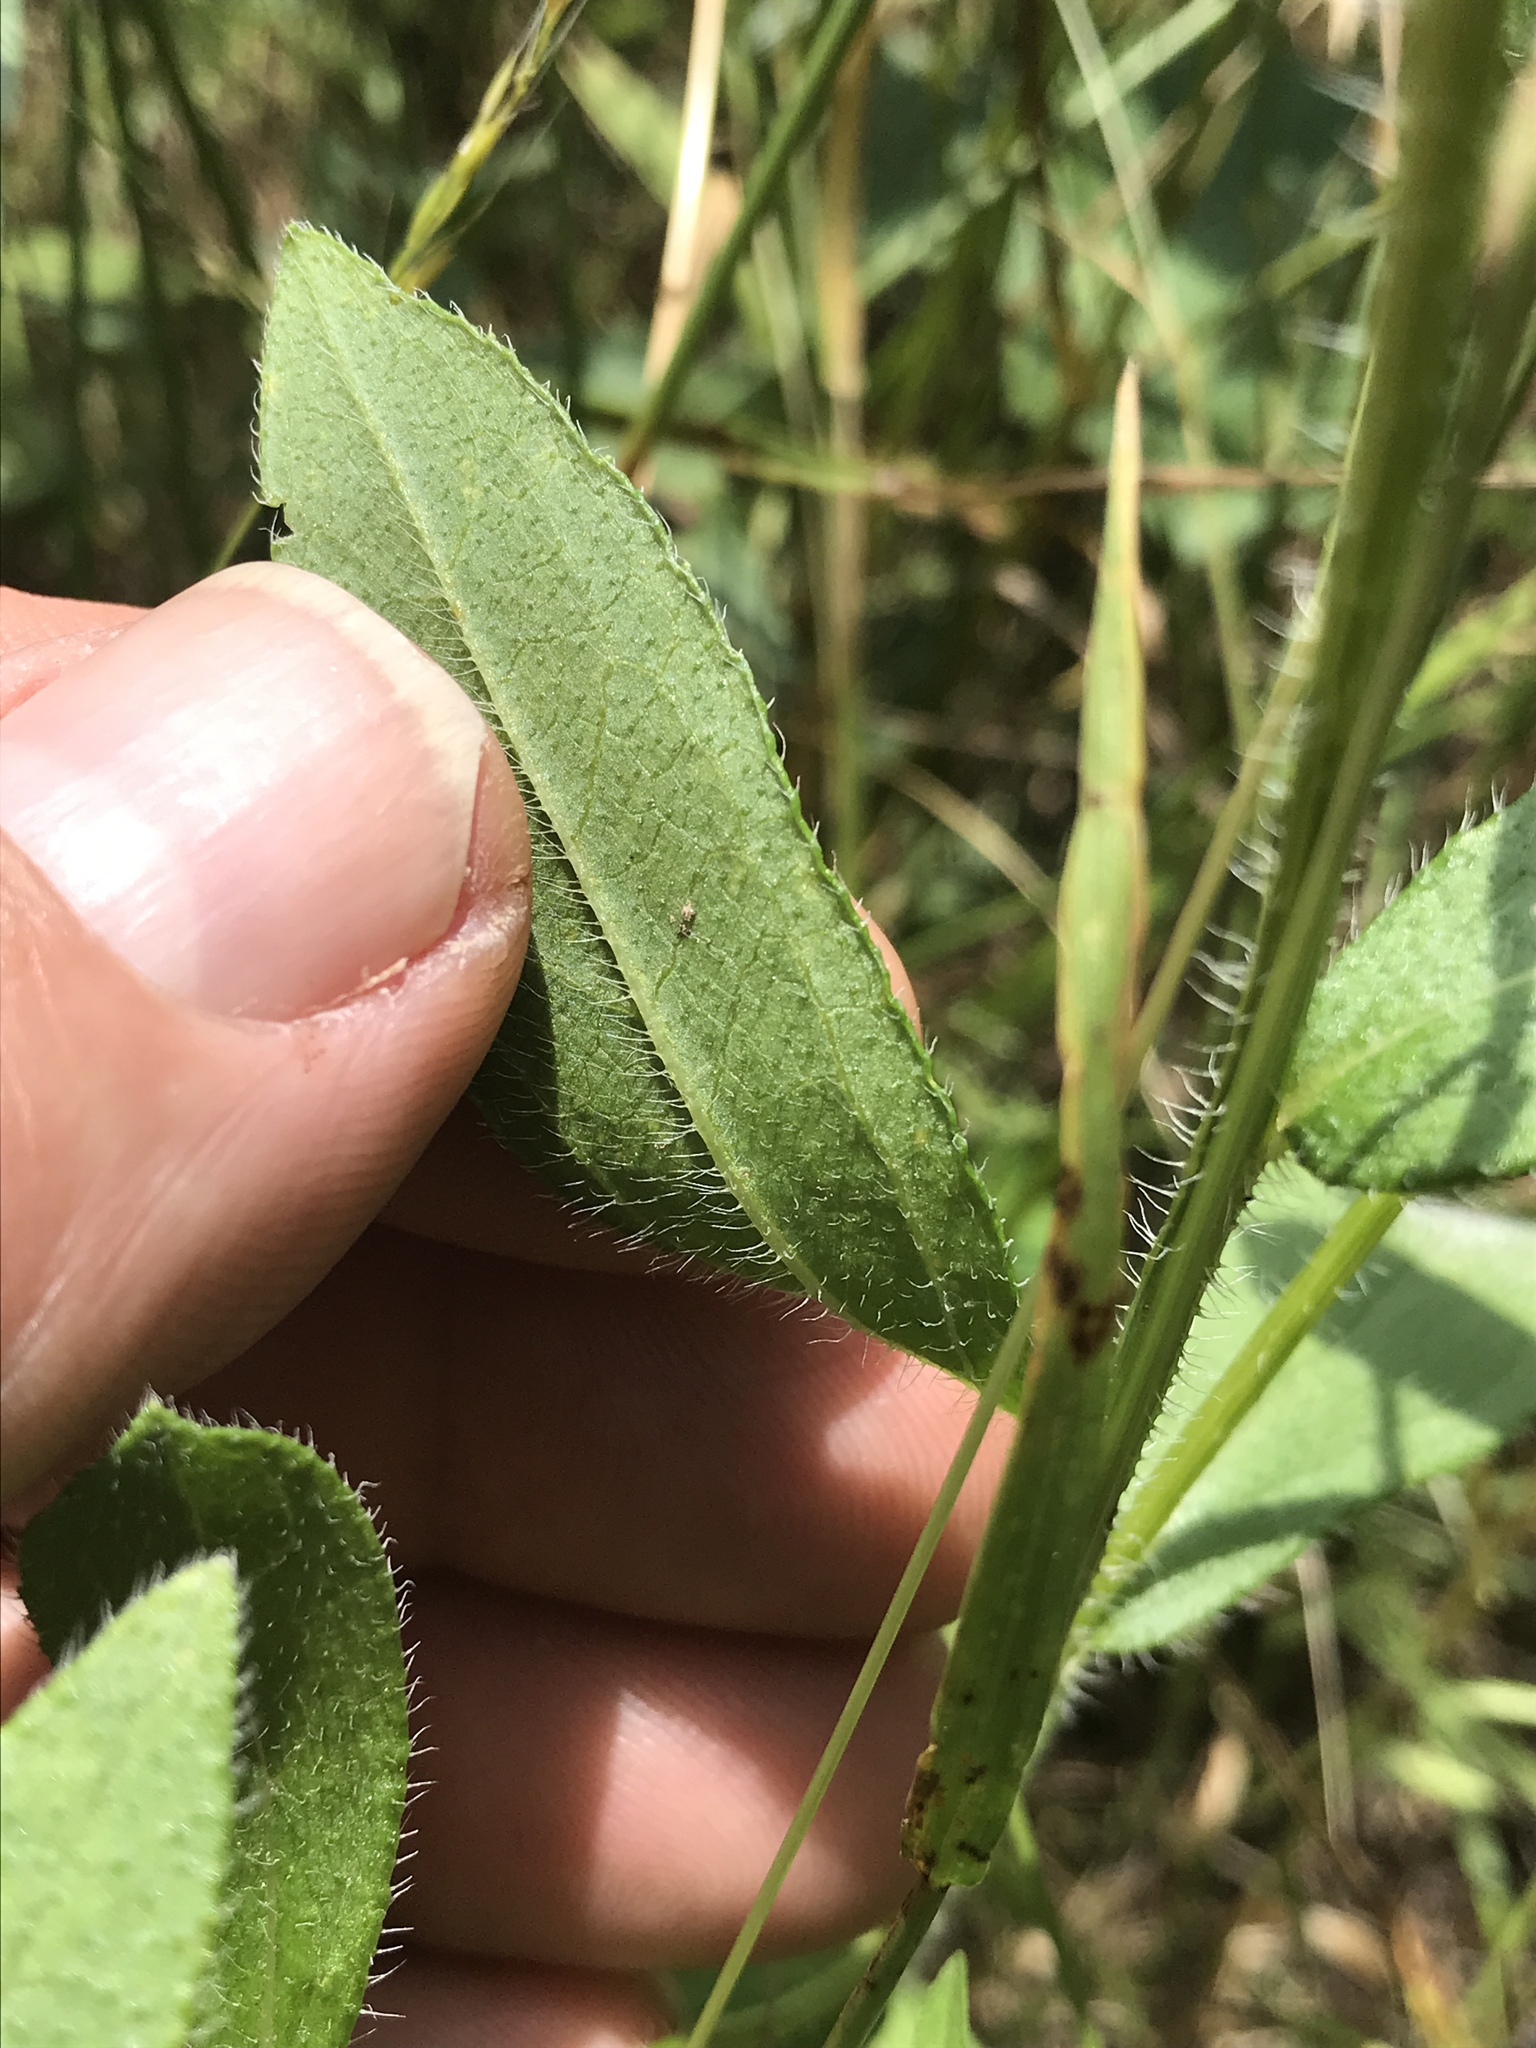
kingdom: Plantae
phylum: Tracheophyta
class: Magnoliopsida
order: Asterales
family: Asteraceae
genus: Rudbeckia
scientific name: Rudbeckia hirta
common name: Black-eyed-susan
